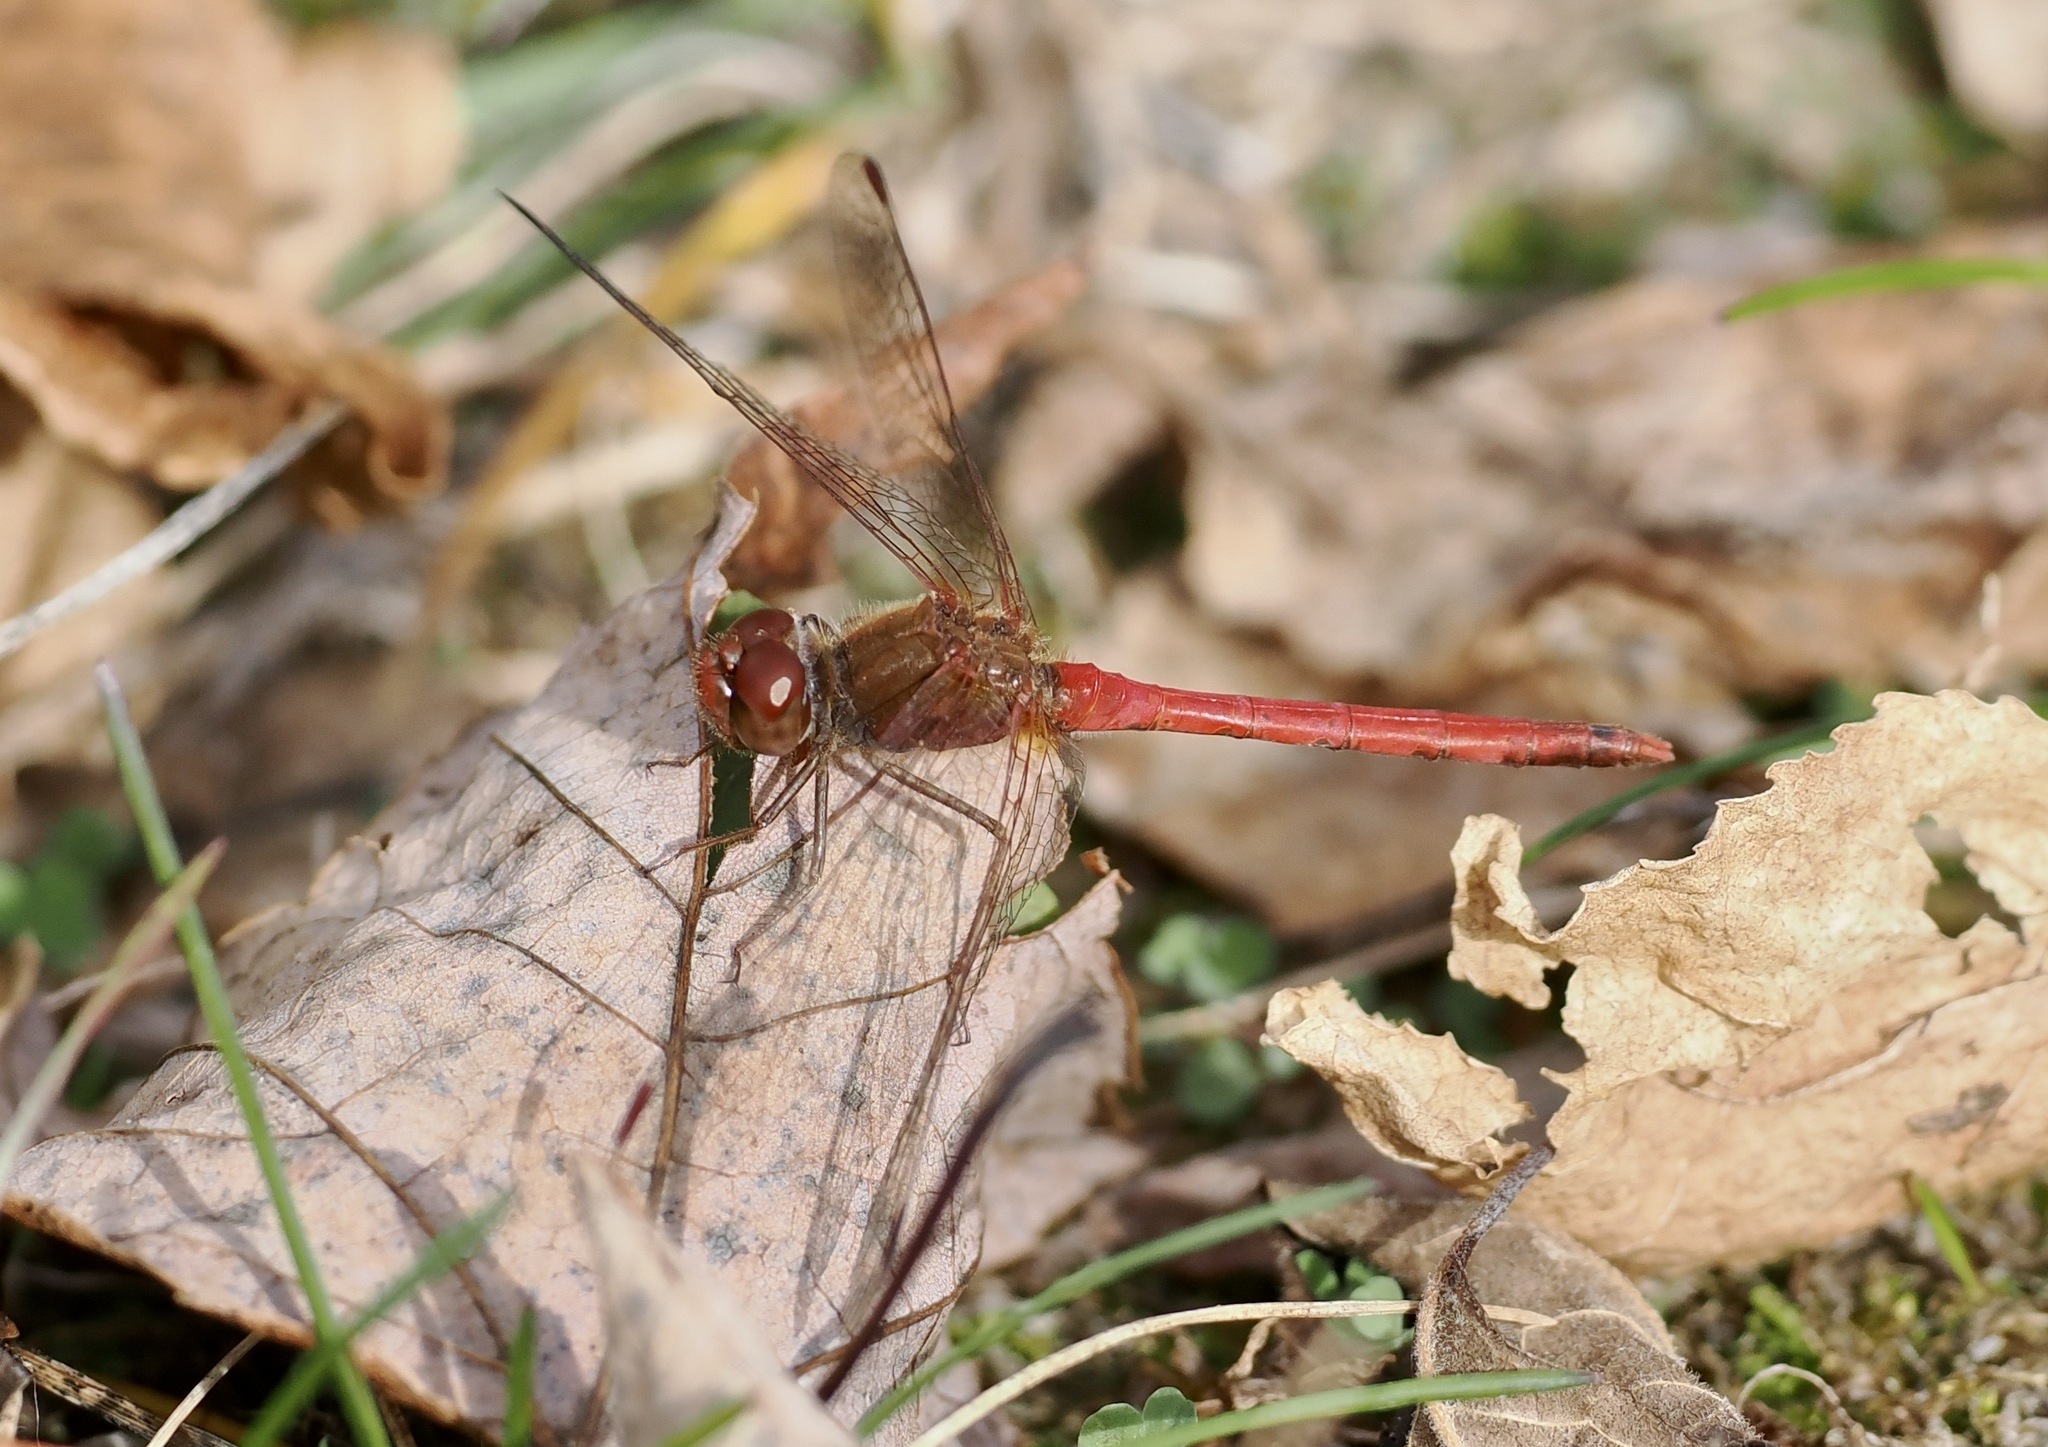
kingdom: Animalia
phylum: Arthropoda
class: Insecta
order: Odonata
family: Libellulidae
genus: Sympetrum
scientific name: Sympetrum vicinum
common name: Autumn meadowhawk
